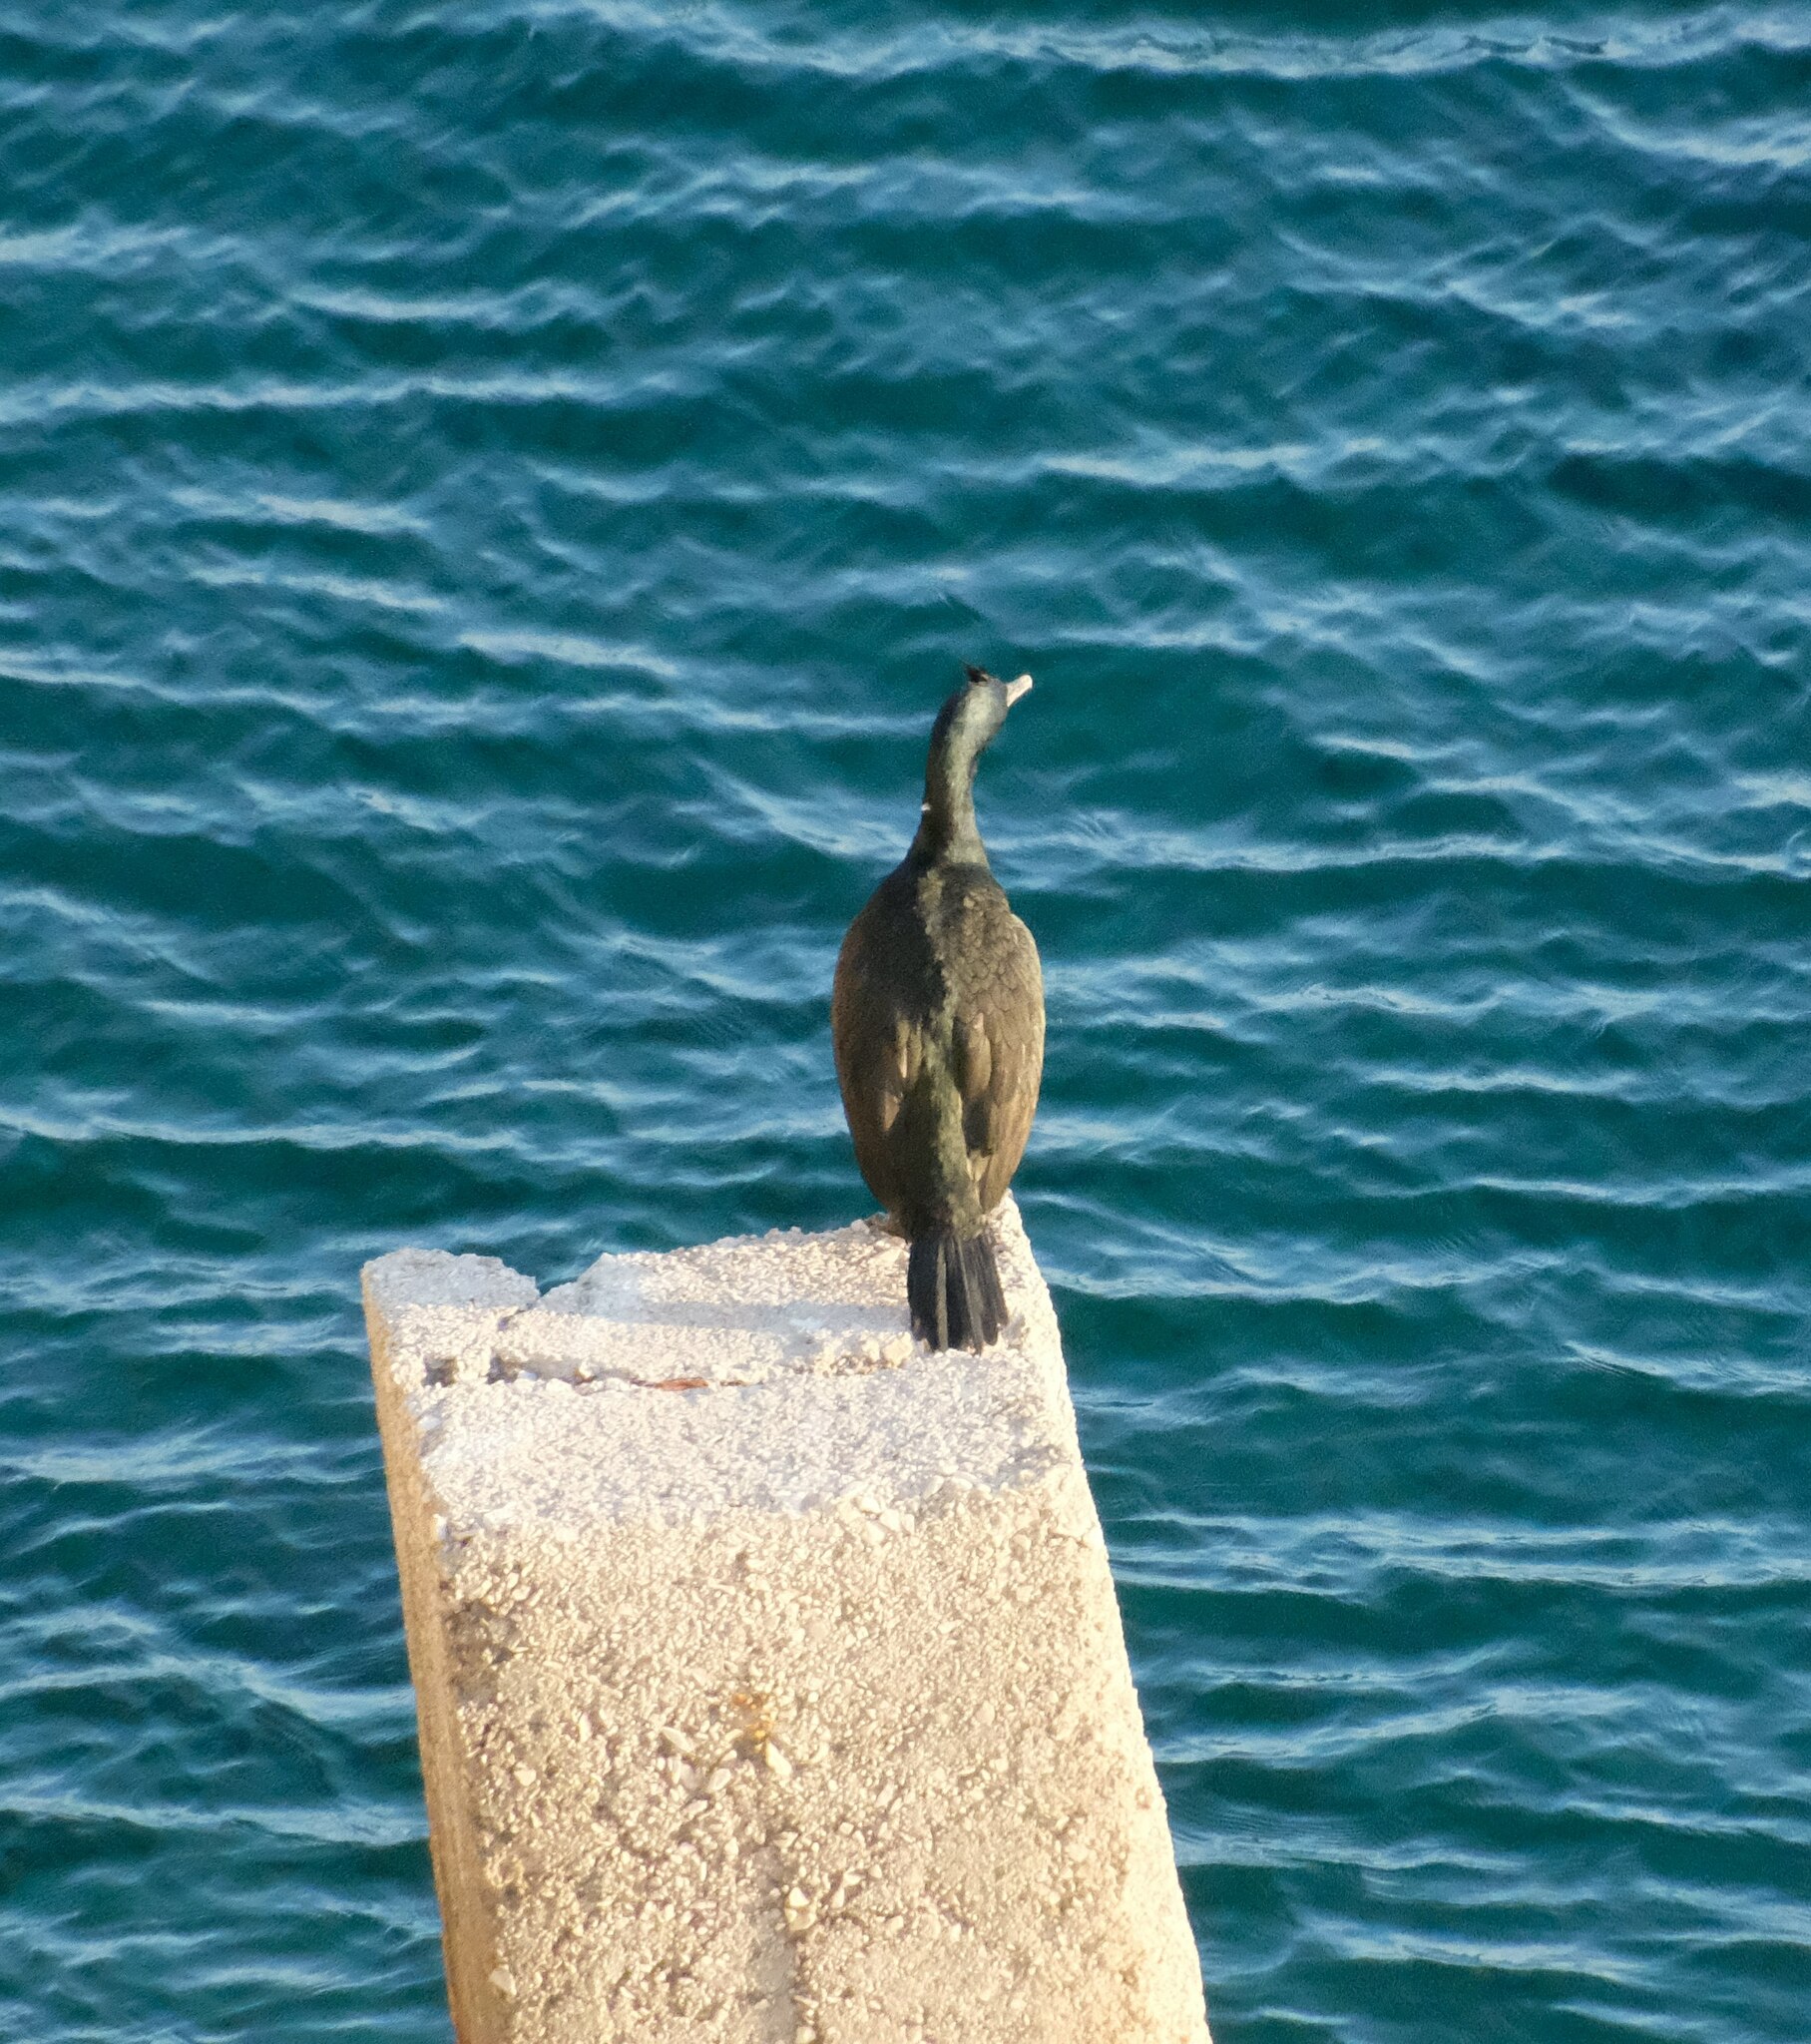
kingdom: Animalia
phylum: Chordata
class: Aves
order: Suliformes
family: Phalacrocoracidae
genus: Phalacrocorax
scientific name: Phalacrocorax aristotelis
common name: European shag
